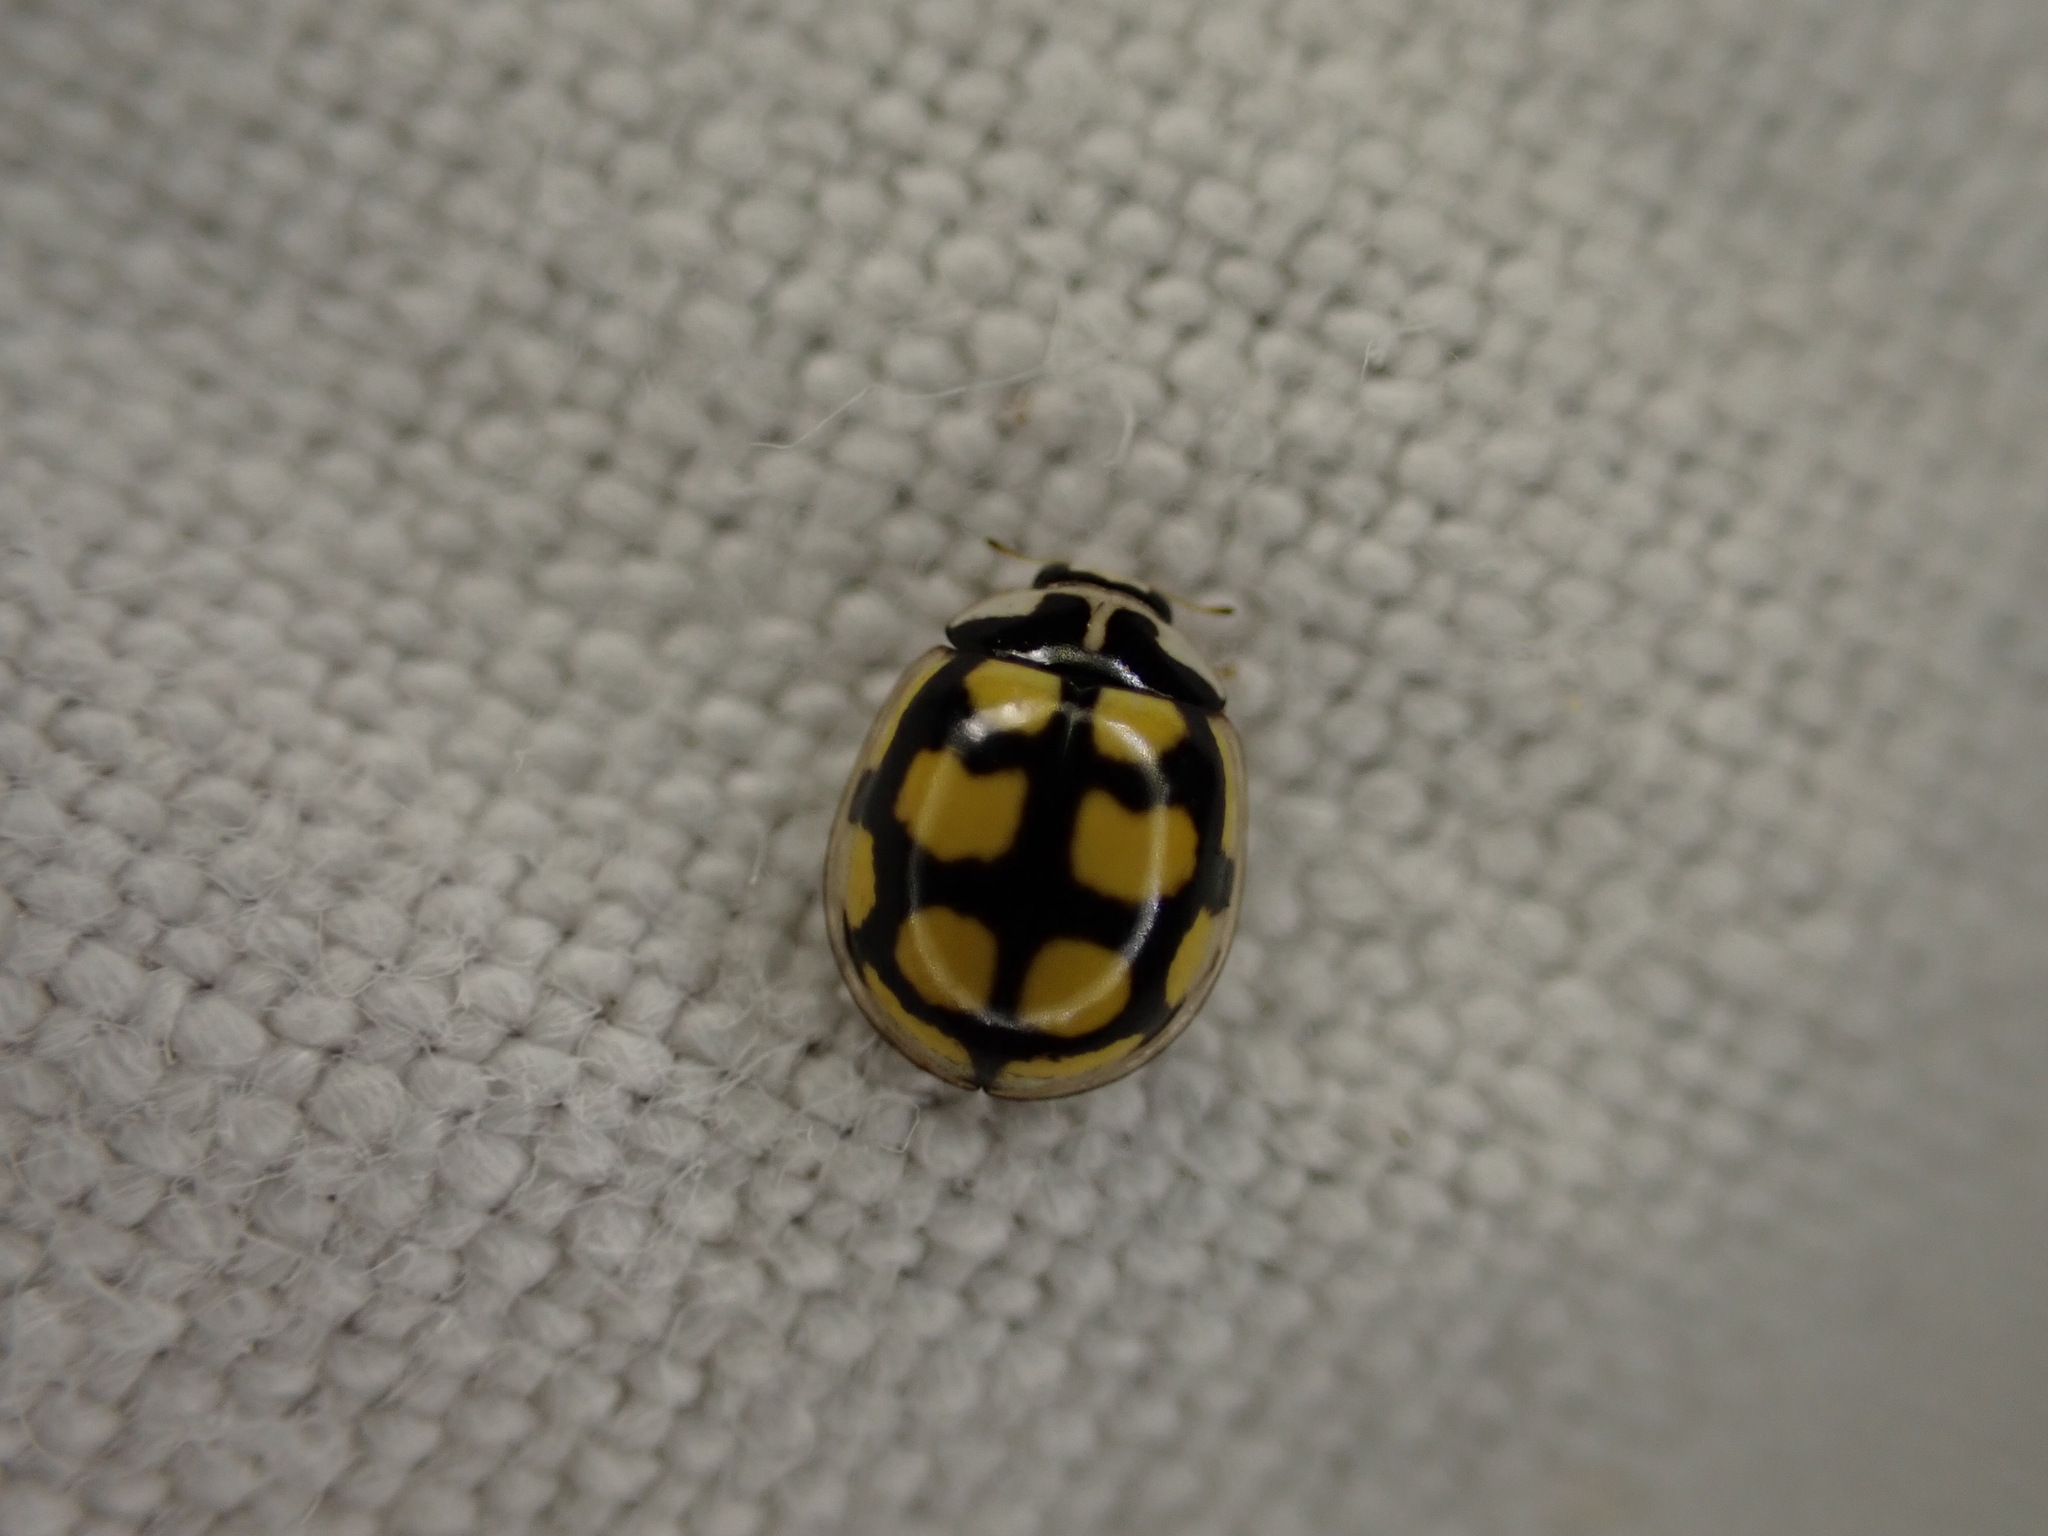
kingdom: Animalia
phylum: Arthropoda
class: Insecta
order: Coleoptera
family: Coccinellidae
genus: Oenopia
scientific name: Oenopia lyncea
